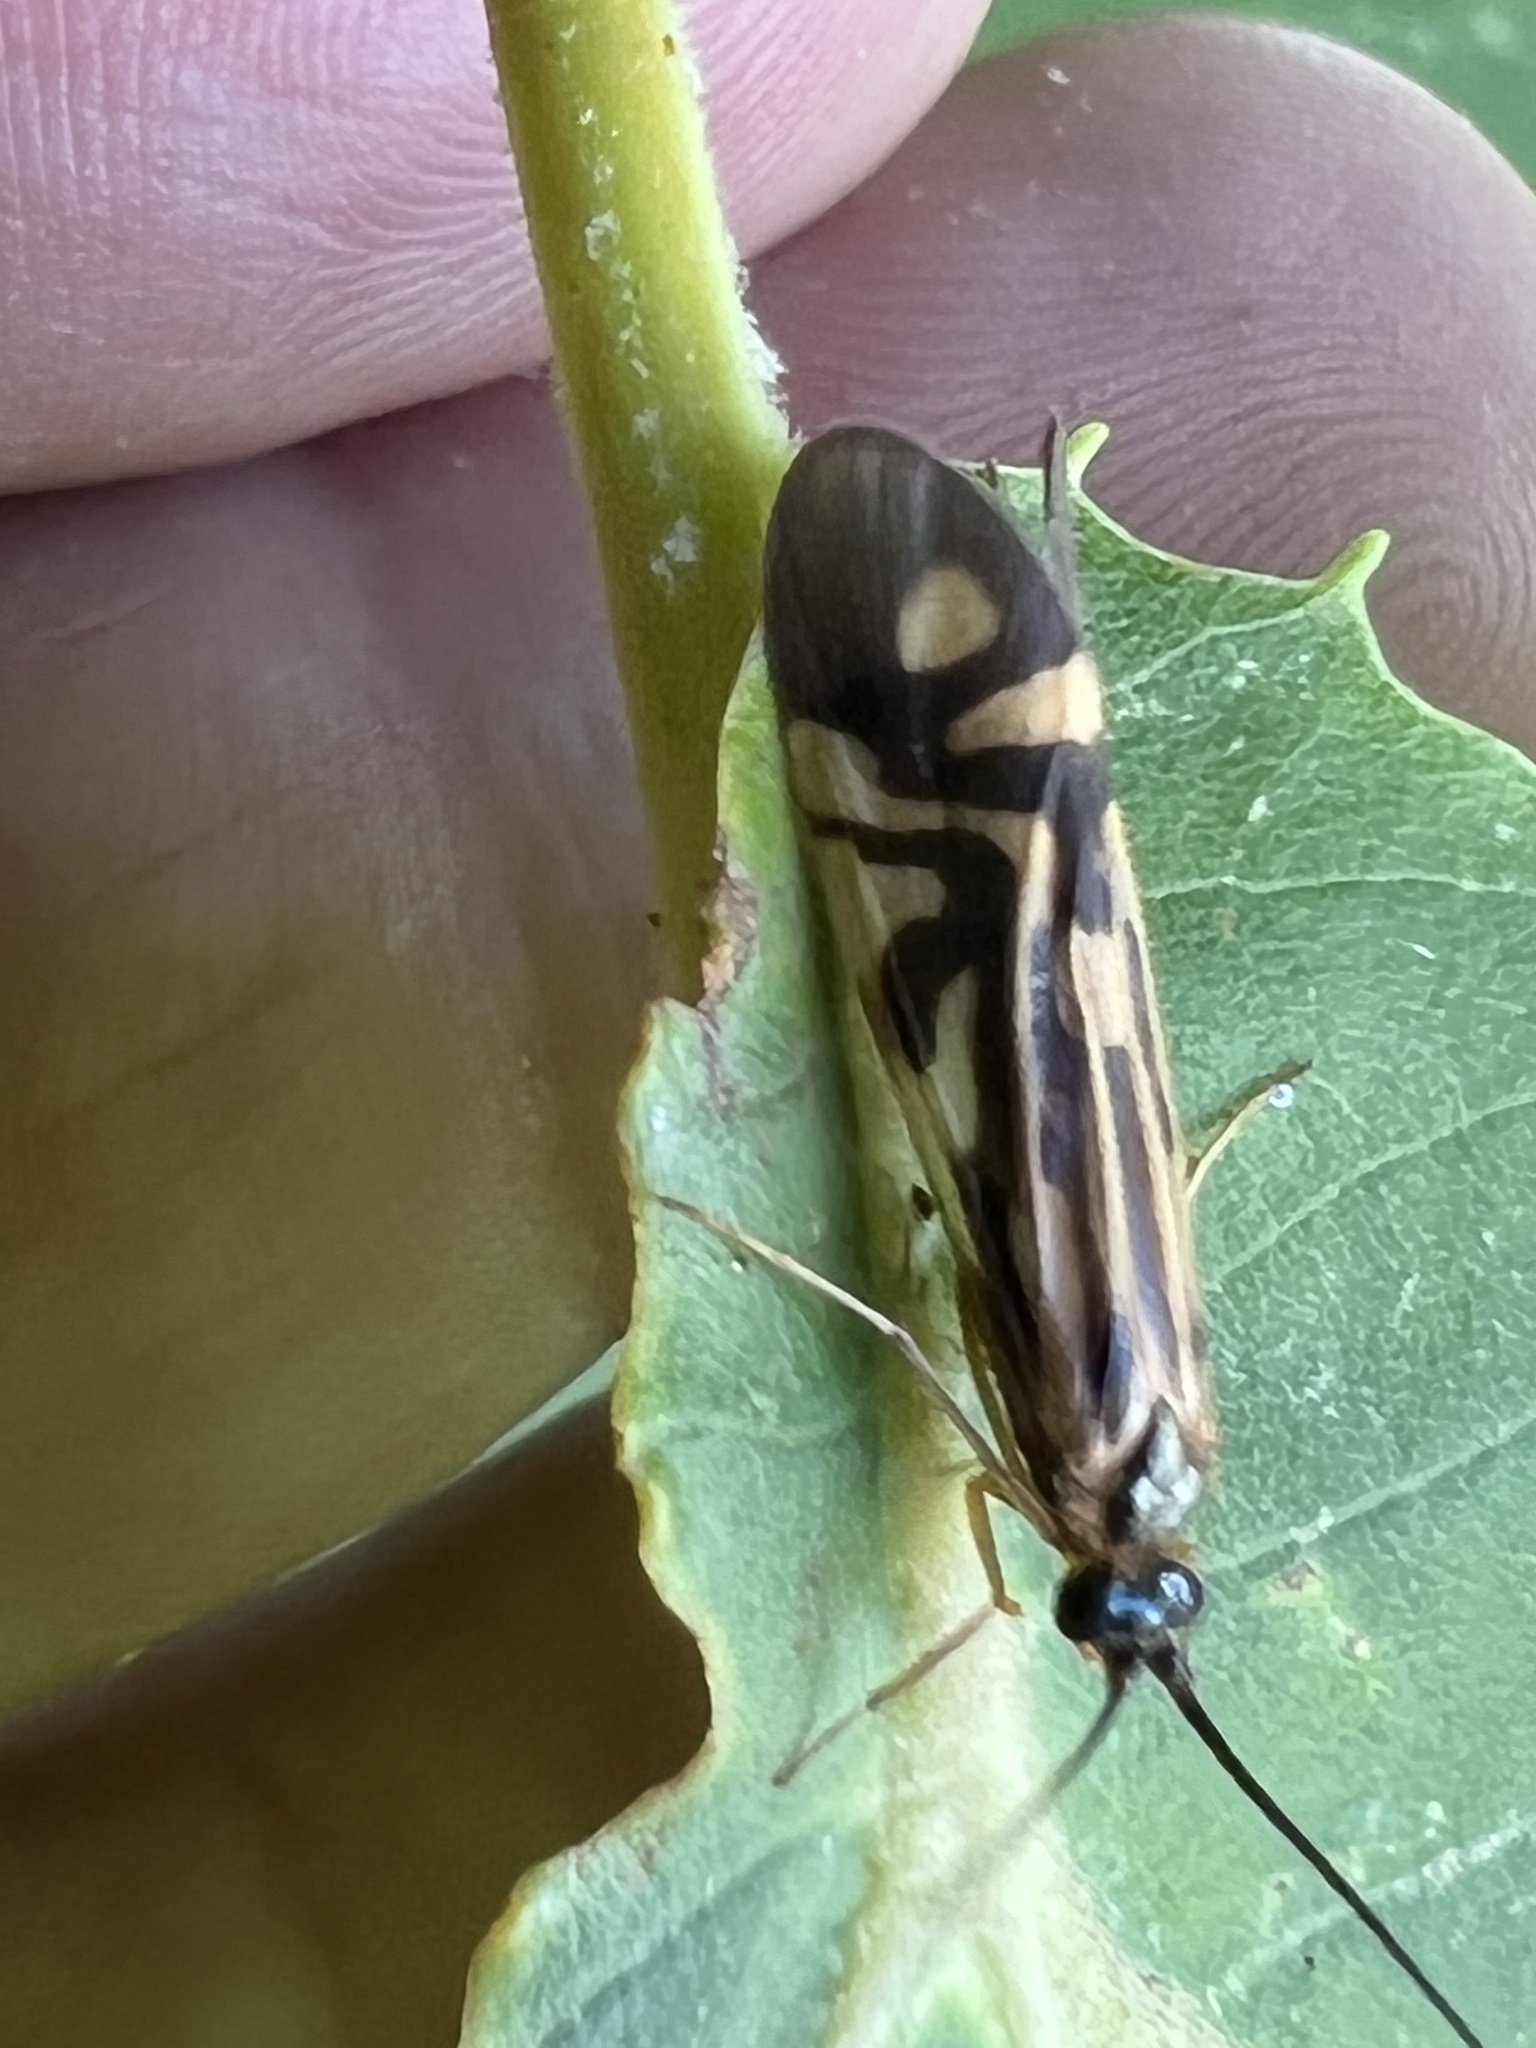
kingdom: Animalia
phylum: Arthropoda
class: Insecta
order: Trichoptera
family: Hydropsychidae
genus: Macrostemum
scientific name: Macrostemum zebratum
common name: Zebra caddisfly
